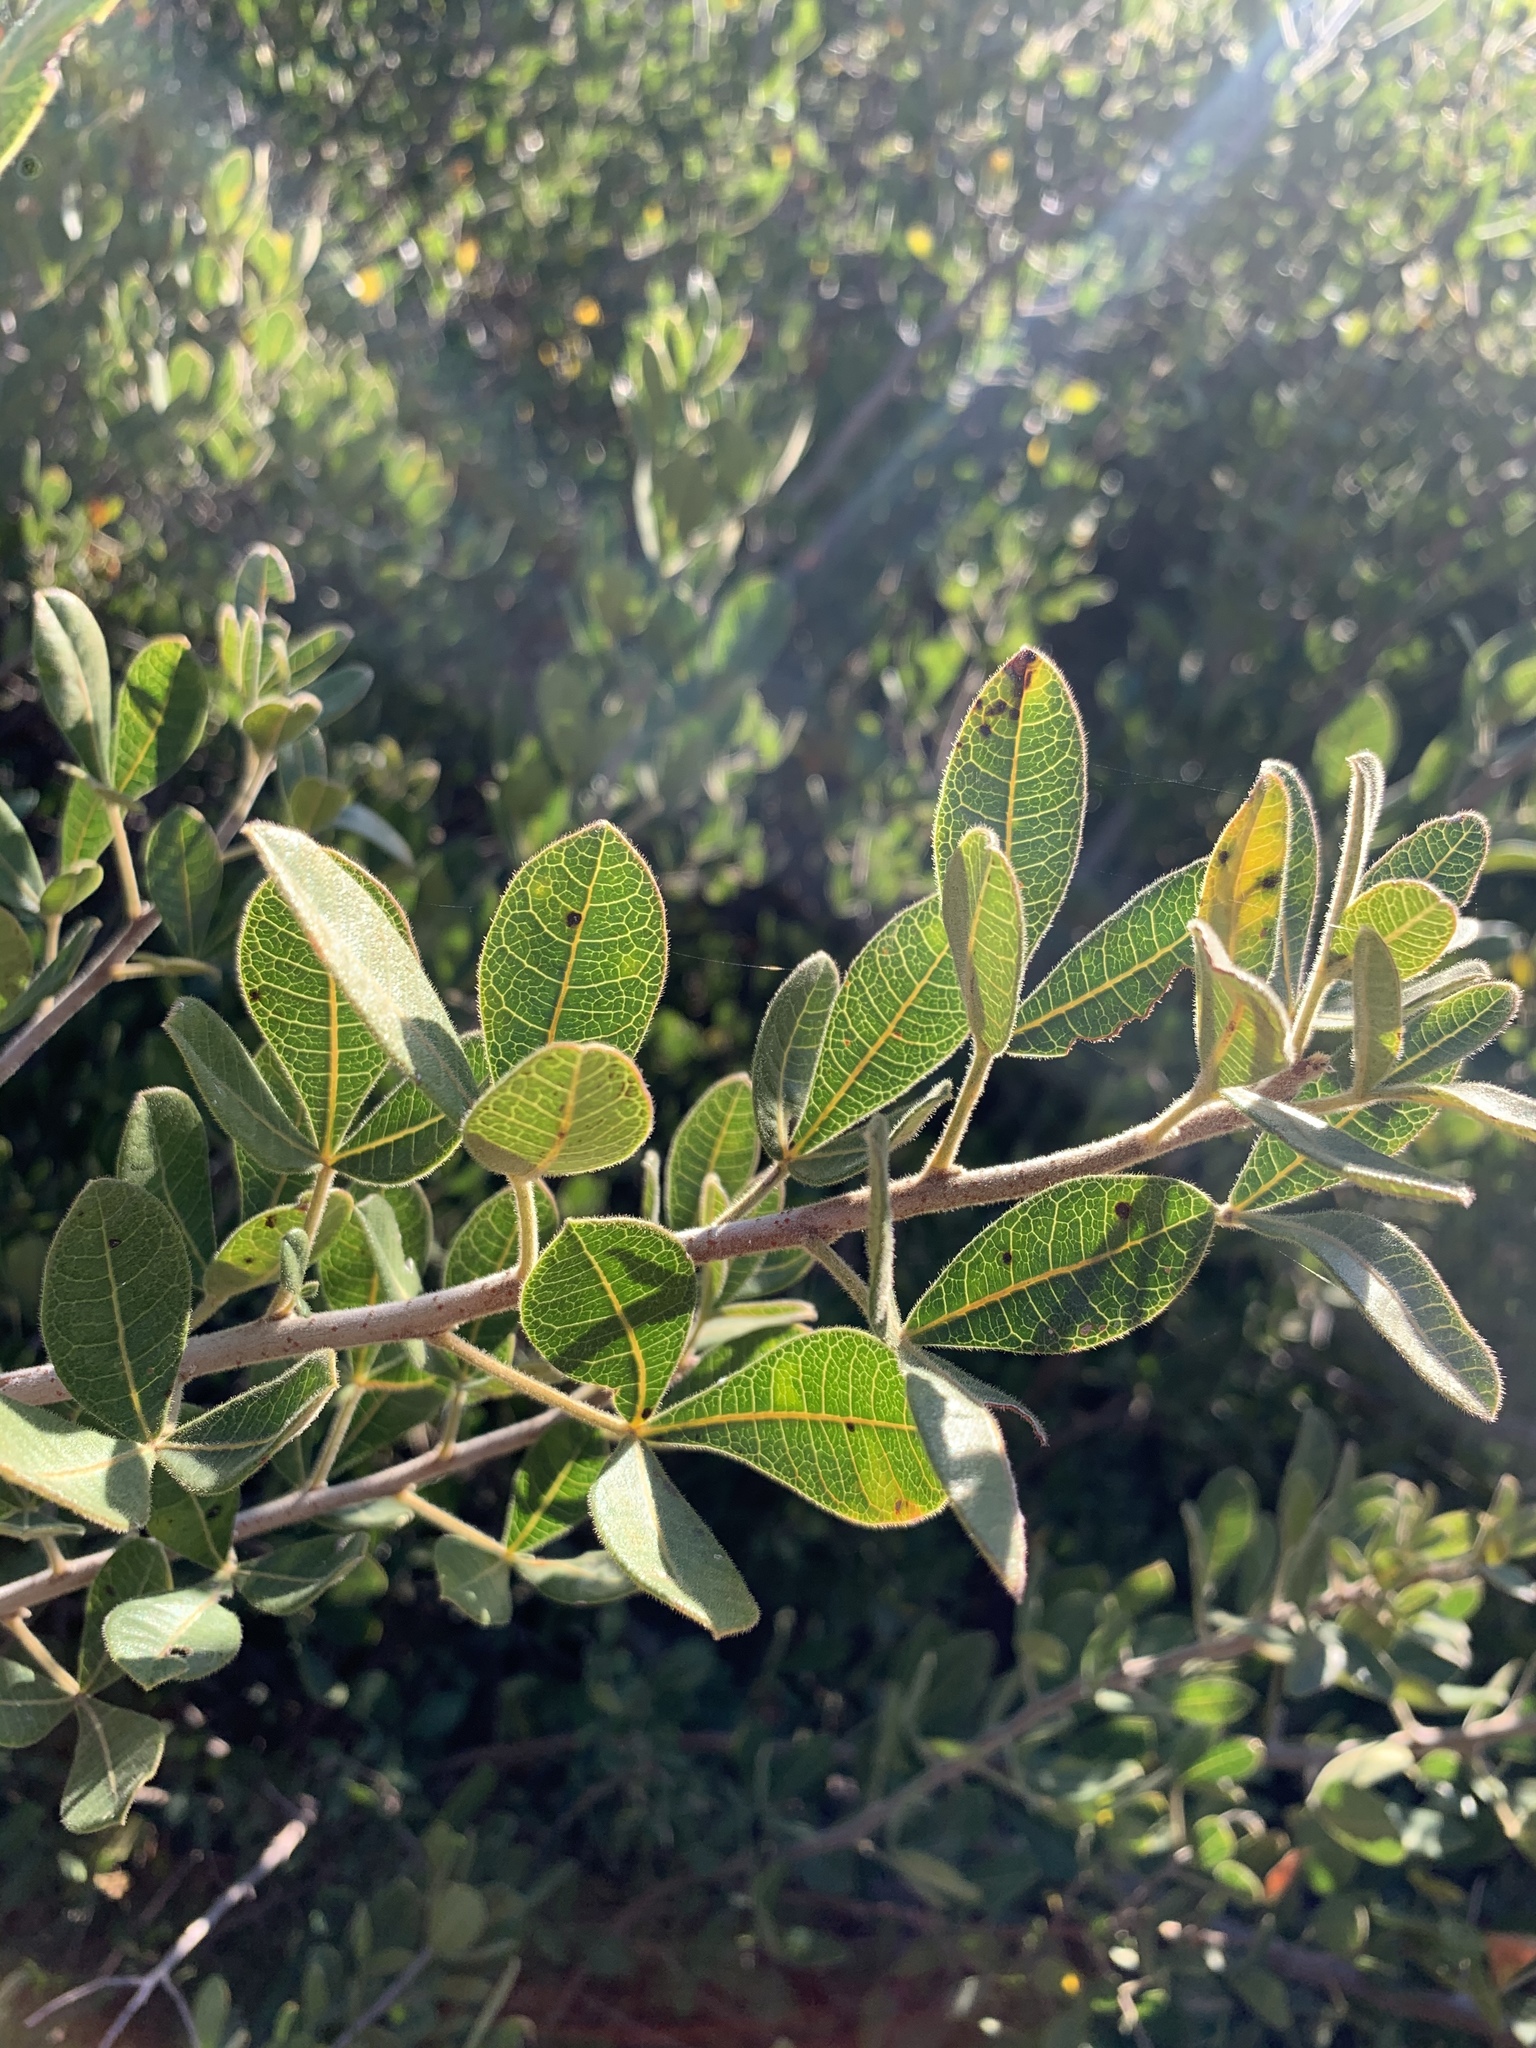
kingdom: Plantae
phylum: Tracheophyta
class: Magnoliopsida
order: Sapindales
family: Anacardiaceae
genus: Searsia
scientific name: Searsia laevigata
